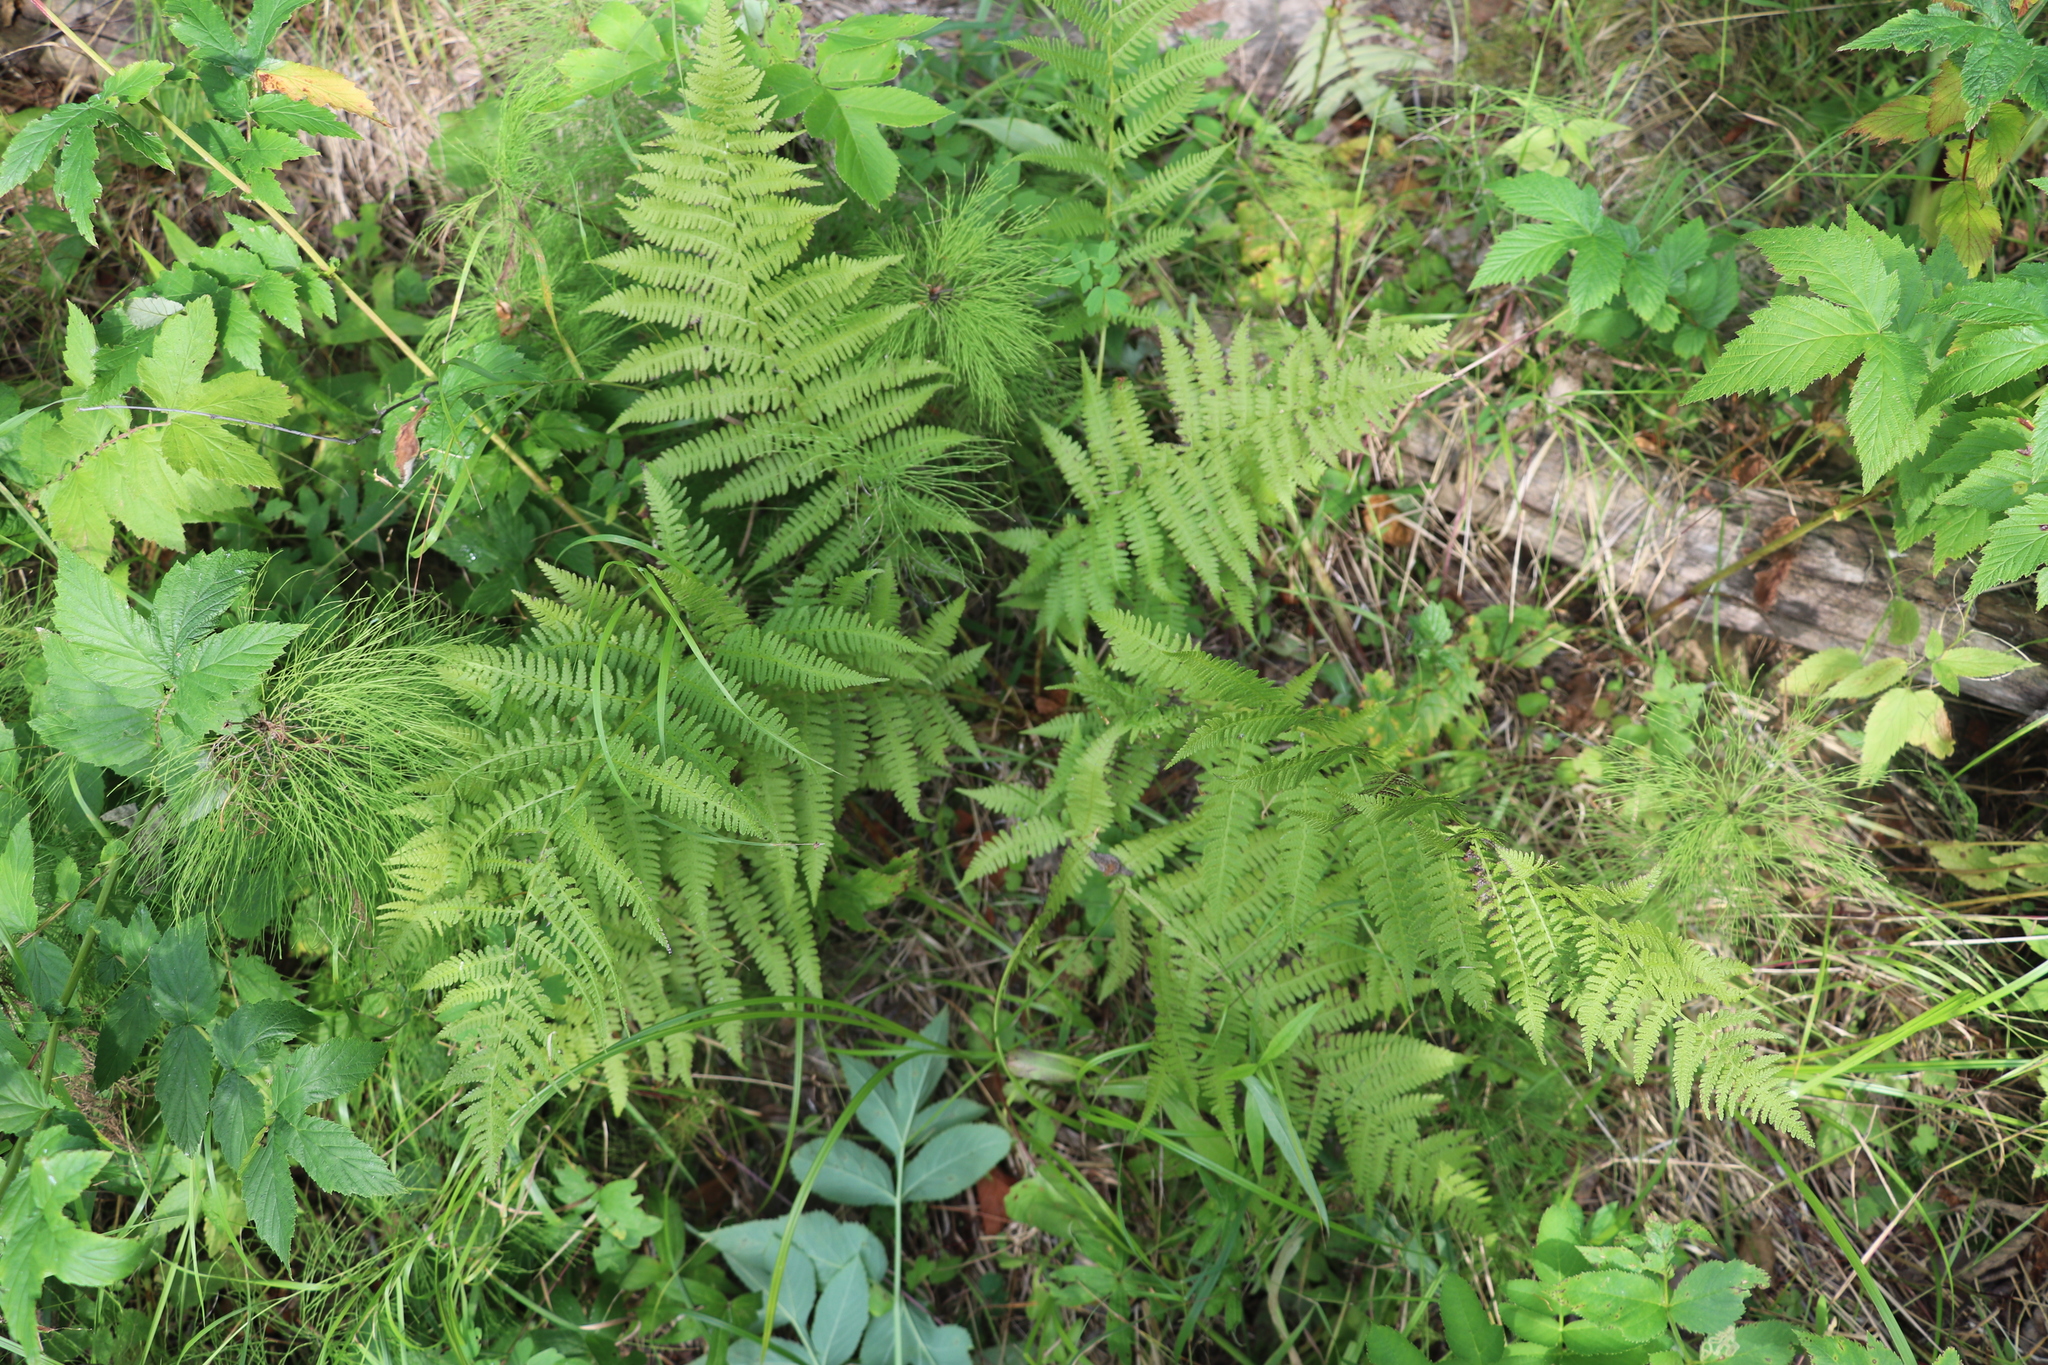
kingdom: Plantae
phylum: Tracheophyta
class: Polypodiopsida
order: Polypodiales
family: Athyriaceae
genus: Athyrium
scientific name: Athyrium filix-femina
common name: Lady fern
